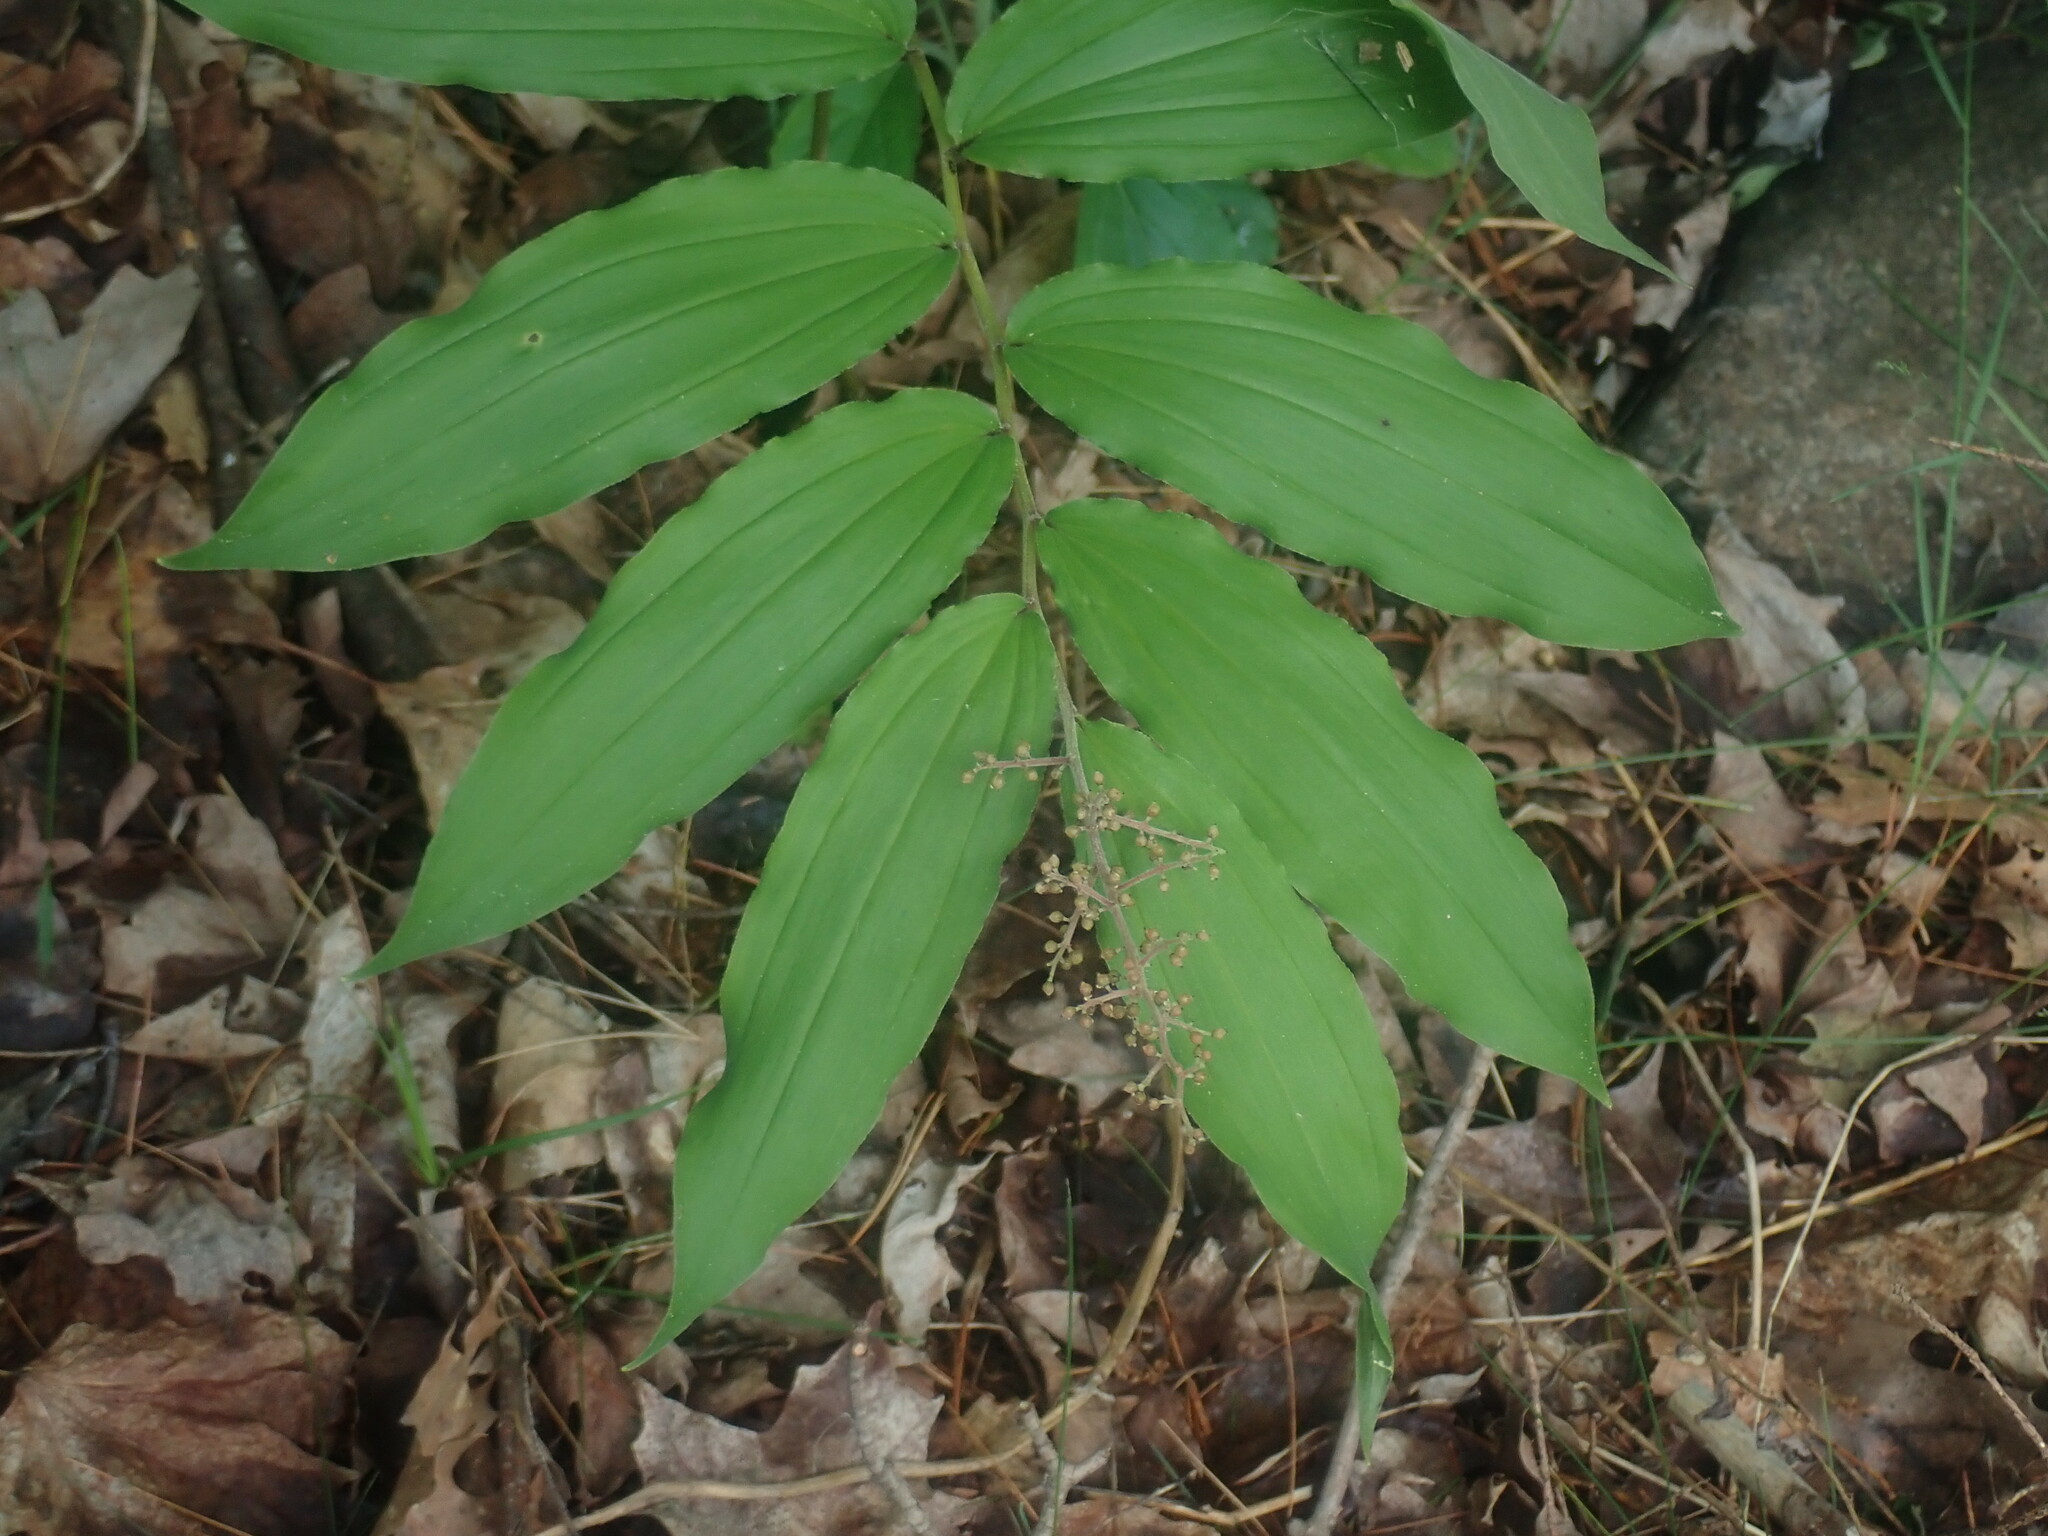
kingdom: Plantae
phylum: Tracheophyta
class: Liliopsida
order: Asparagales
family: Asparagaceae
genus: Maianthemum
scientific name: Maianthemum racemosum
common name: False spikenard
